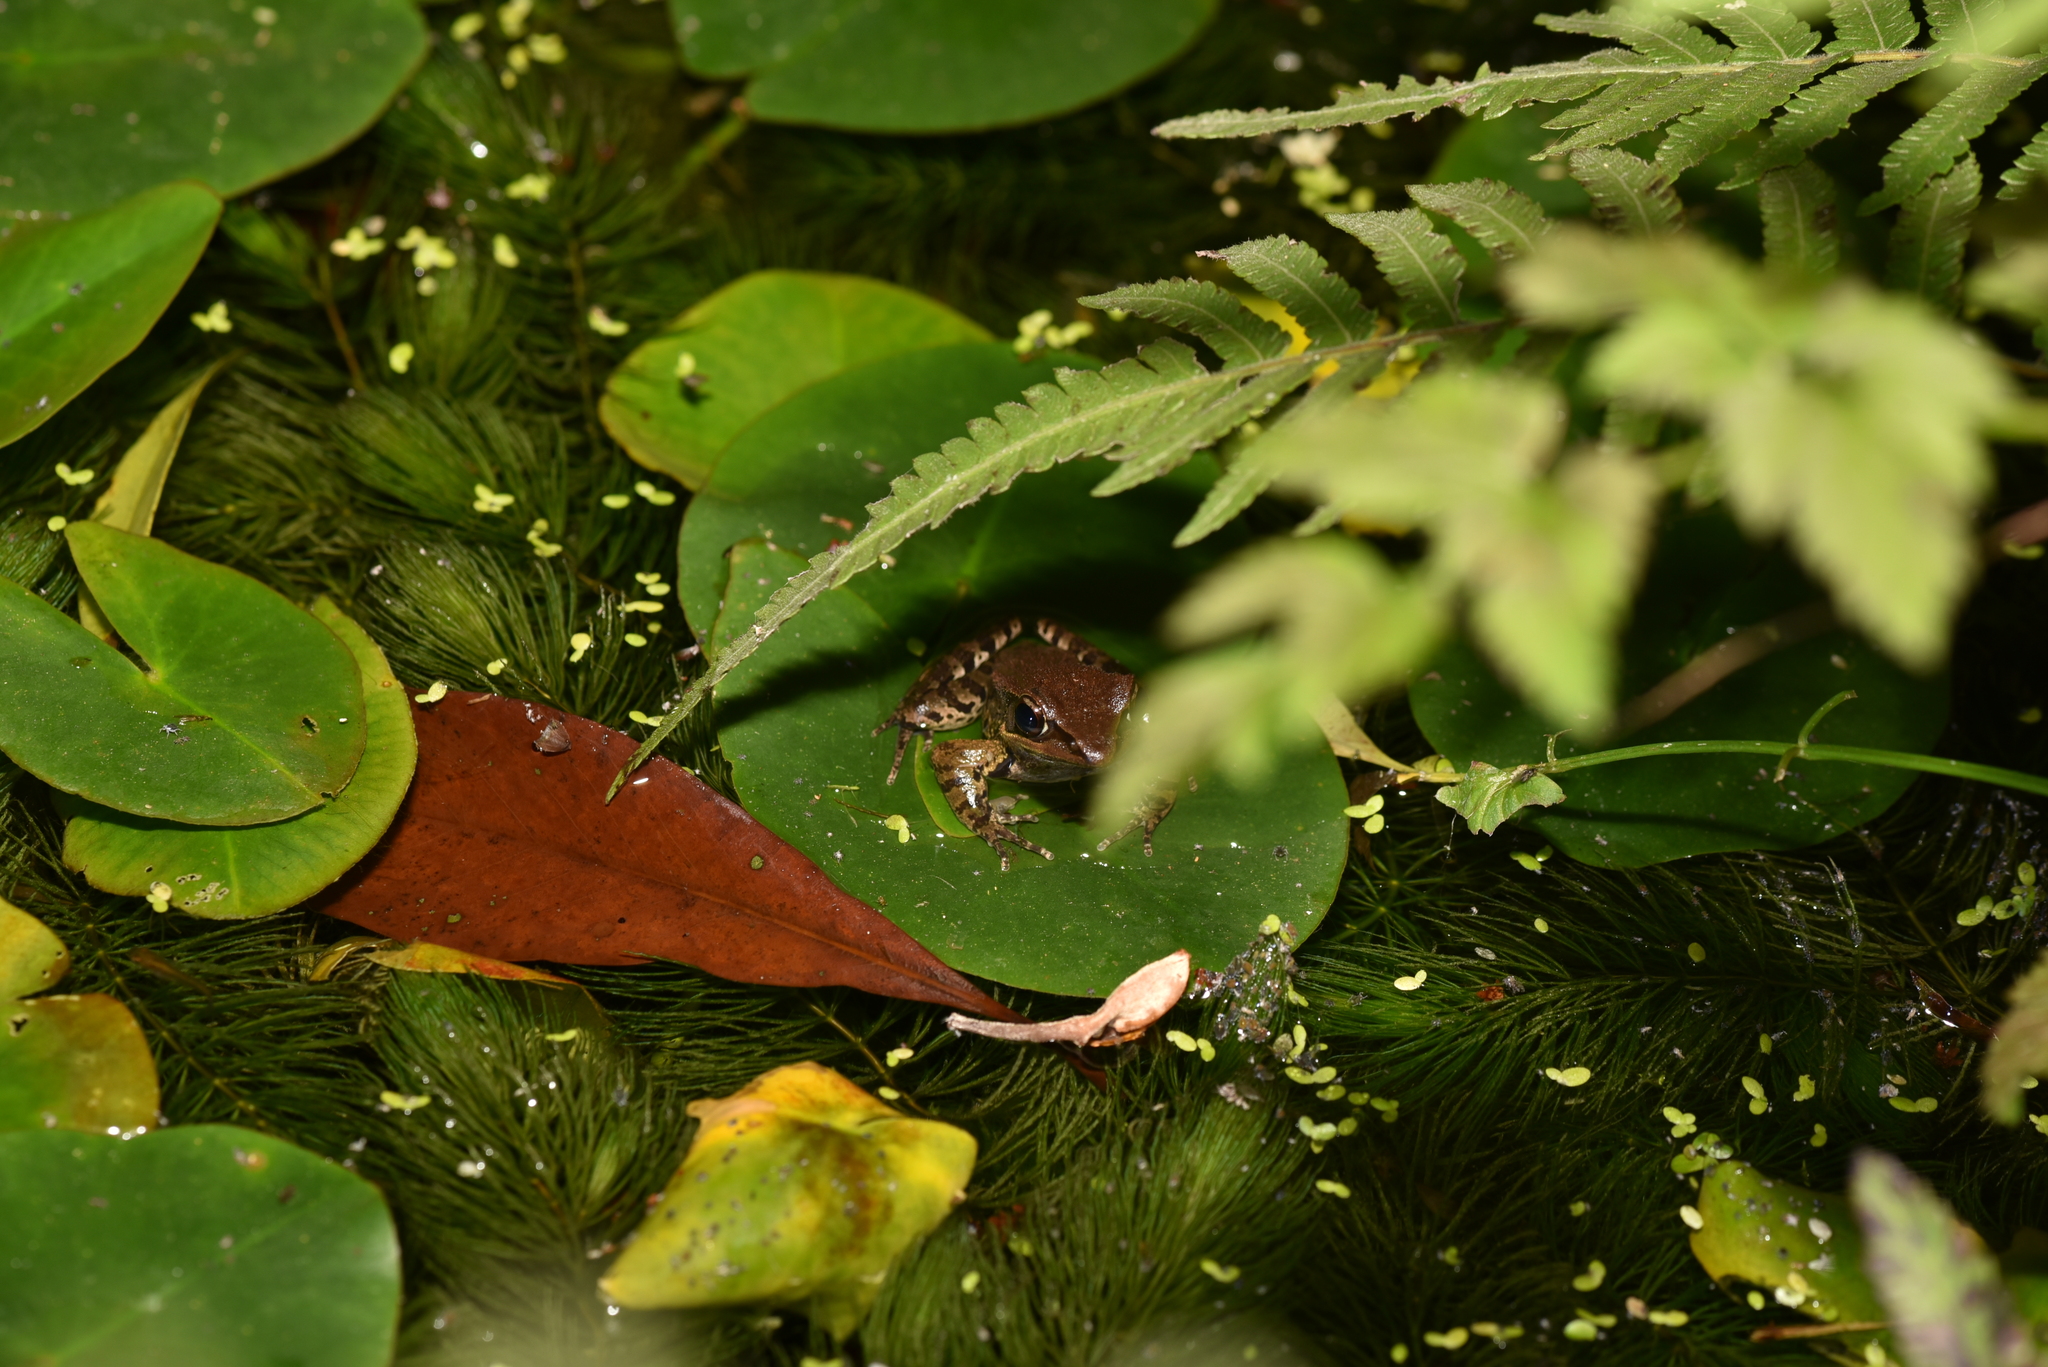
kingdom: Animalia
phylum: Chordata
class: Amphibia
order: Anura
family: Ranidae
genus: Hylarana
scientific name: Hylarana latouchii
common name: Broad-folded frog
